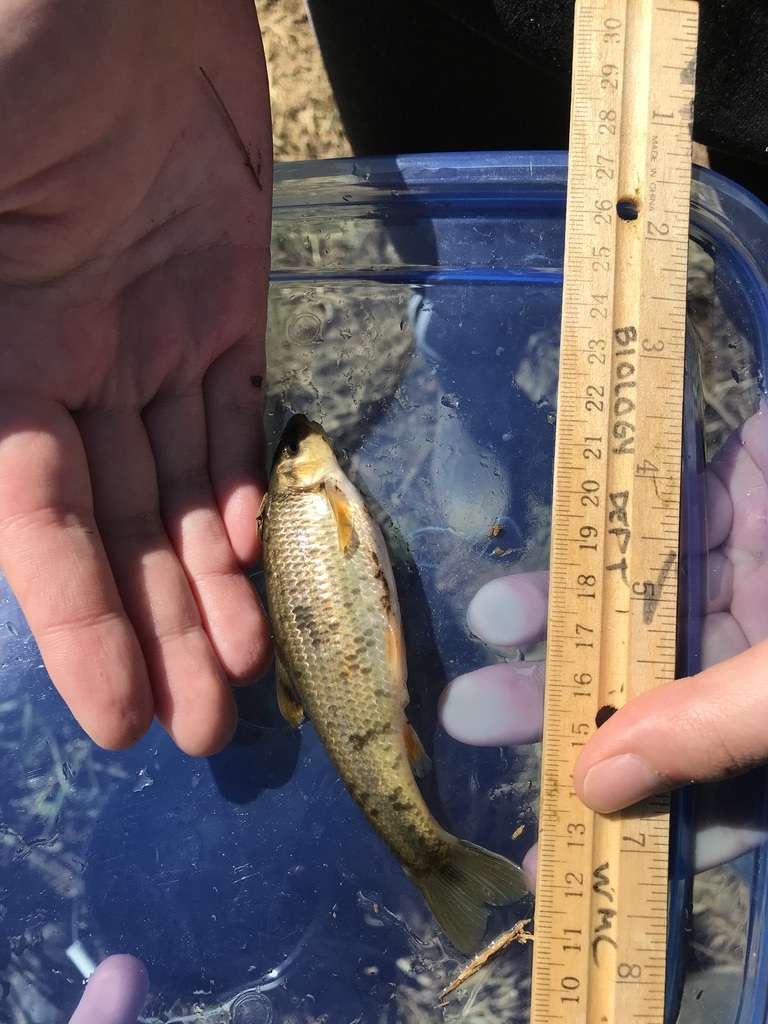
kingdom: Animalia
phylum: Chordata
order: Cypriniformes
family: Cyprinidae
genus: Campostoma
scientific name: Campostoma anomalum
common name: Central stoneroller
